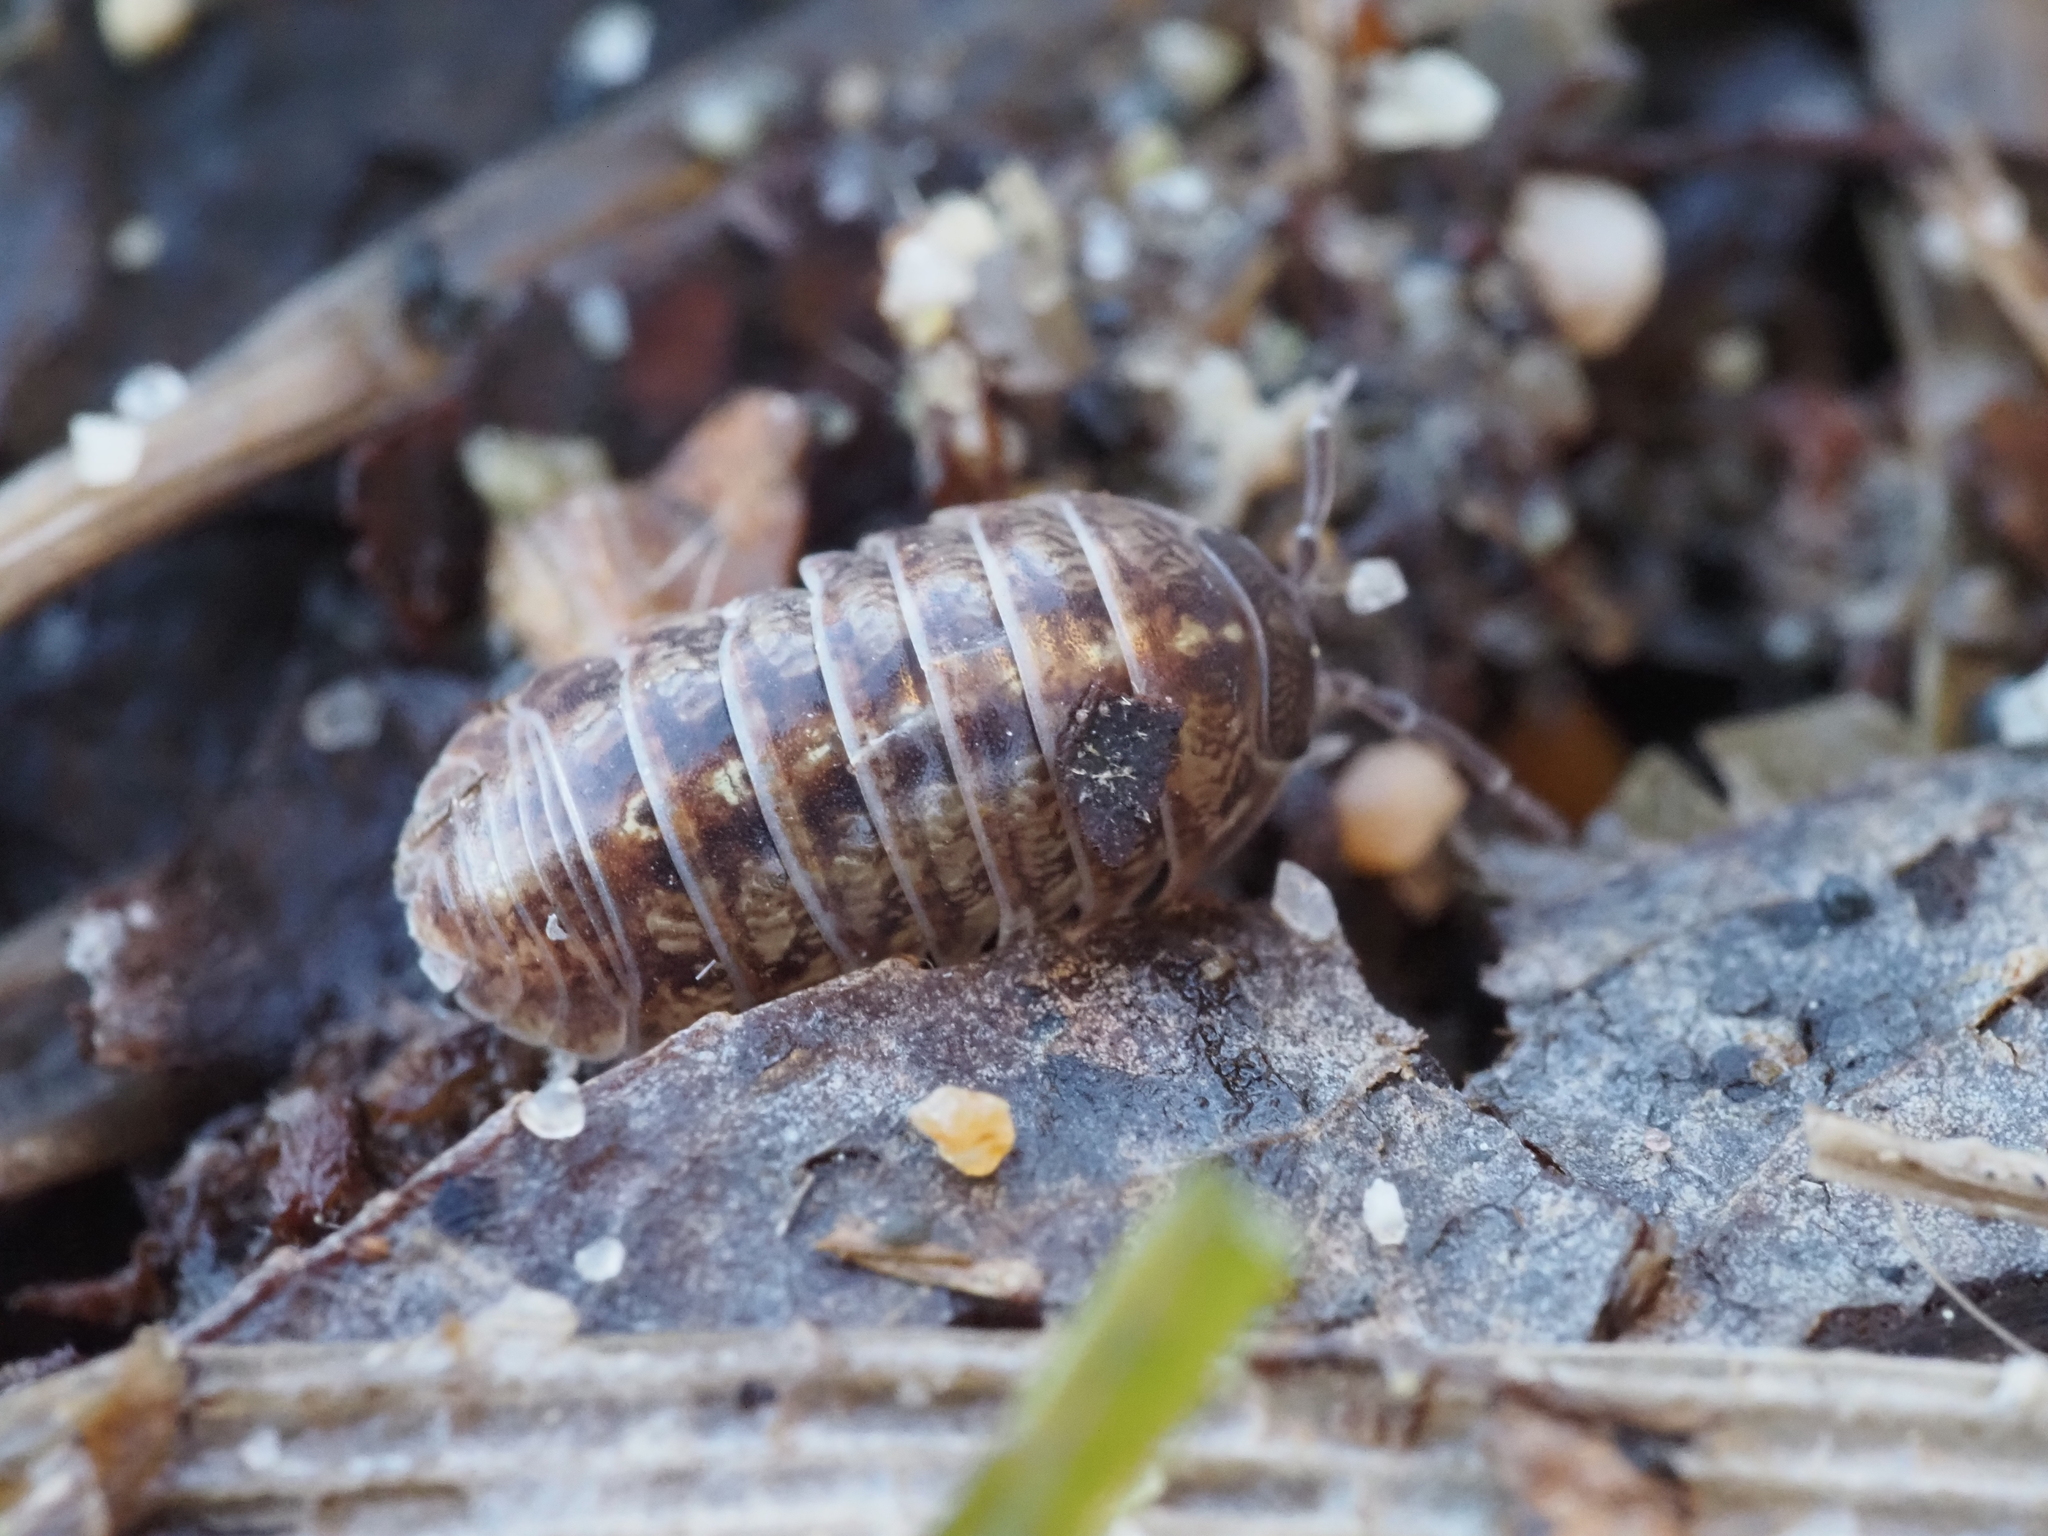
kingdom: Animalia
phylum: Arthropoda
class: Malacostraca
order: Isopoda
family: Armadillidiidae
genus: Armadillidium
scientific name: Armadillidium vulgare
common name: Common pill woodlouse
